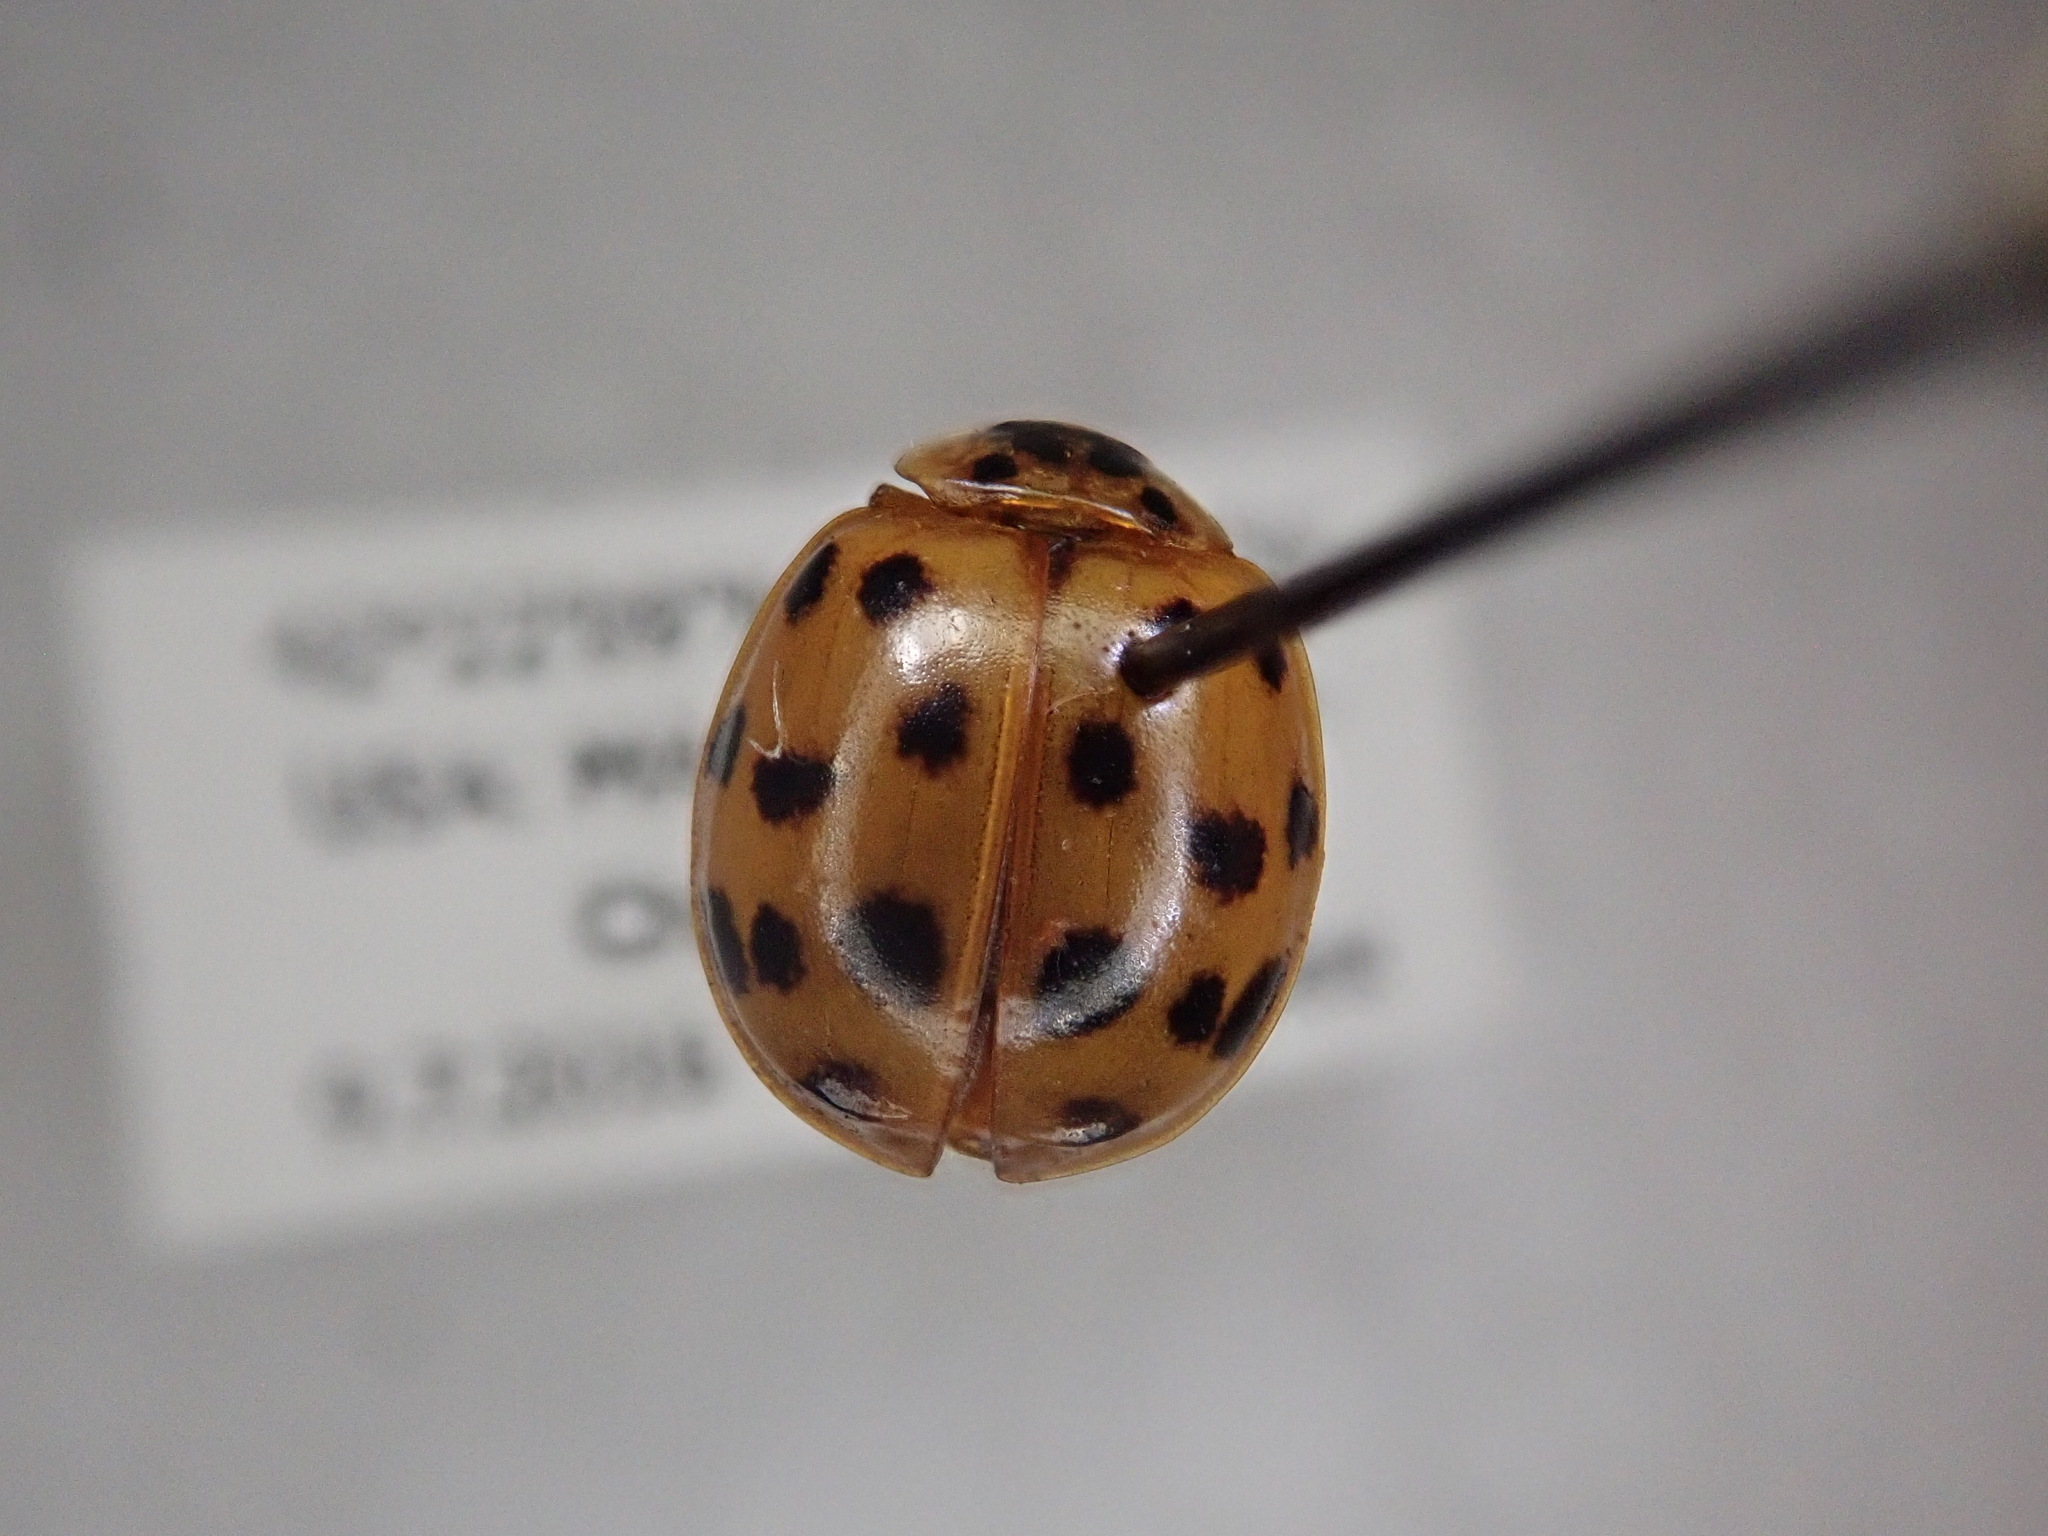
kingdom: Animalia
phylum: Arthropoda
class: Insecta
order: Coleoptera
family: Coccinellidae
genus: Harmonia
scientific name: Harmonia axyridis
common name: Harlequin ladybird
